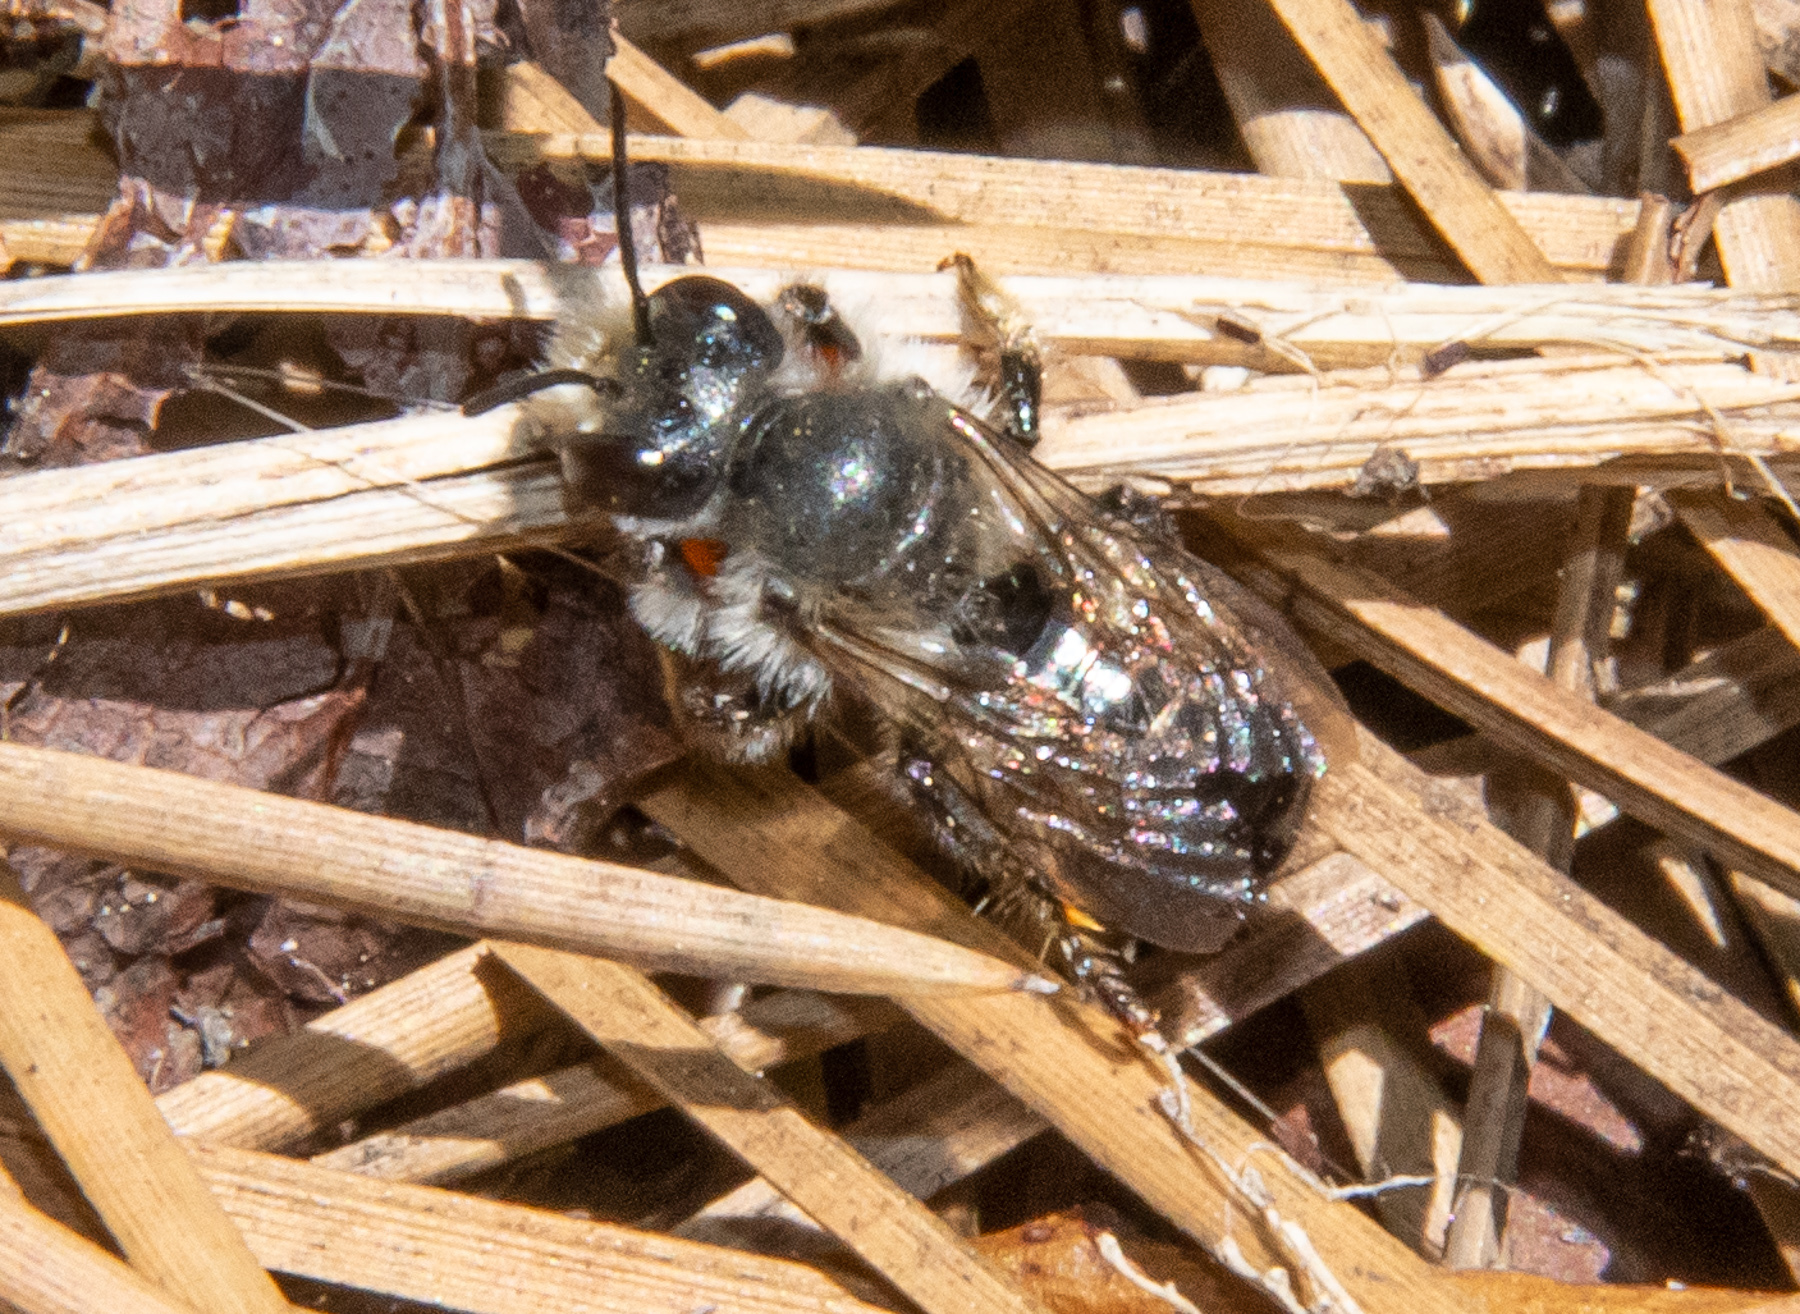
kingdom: Animalia
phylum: Arthropoda
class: Insecta
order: Hymenoptera
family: Megachilidae
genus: Megachile
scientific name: Megachile melanophaea
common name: Black-and-gray leafcutter bee
